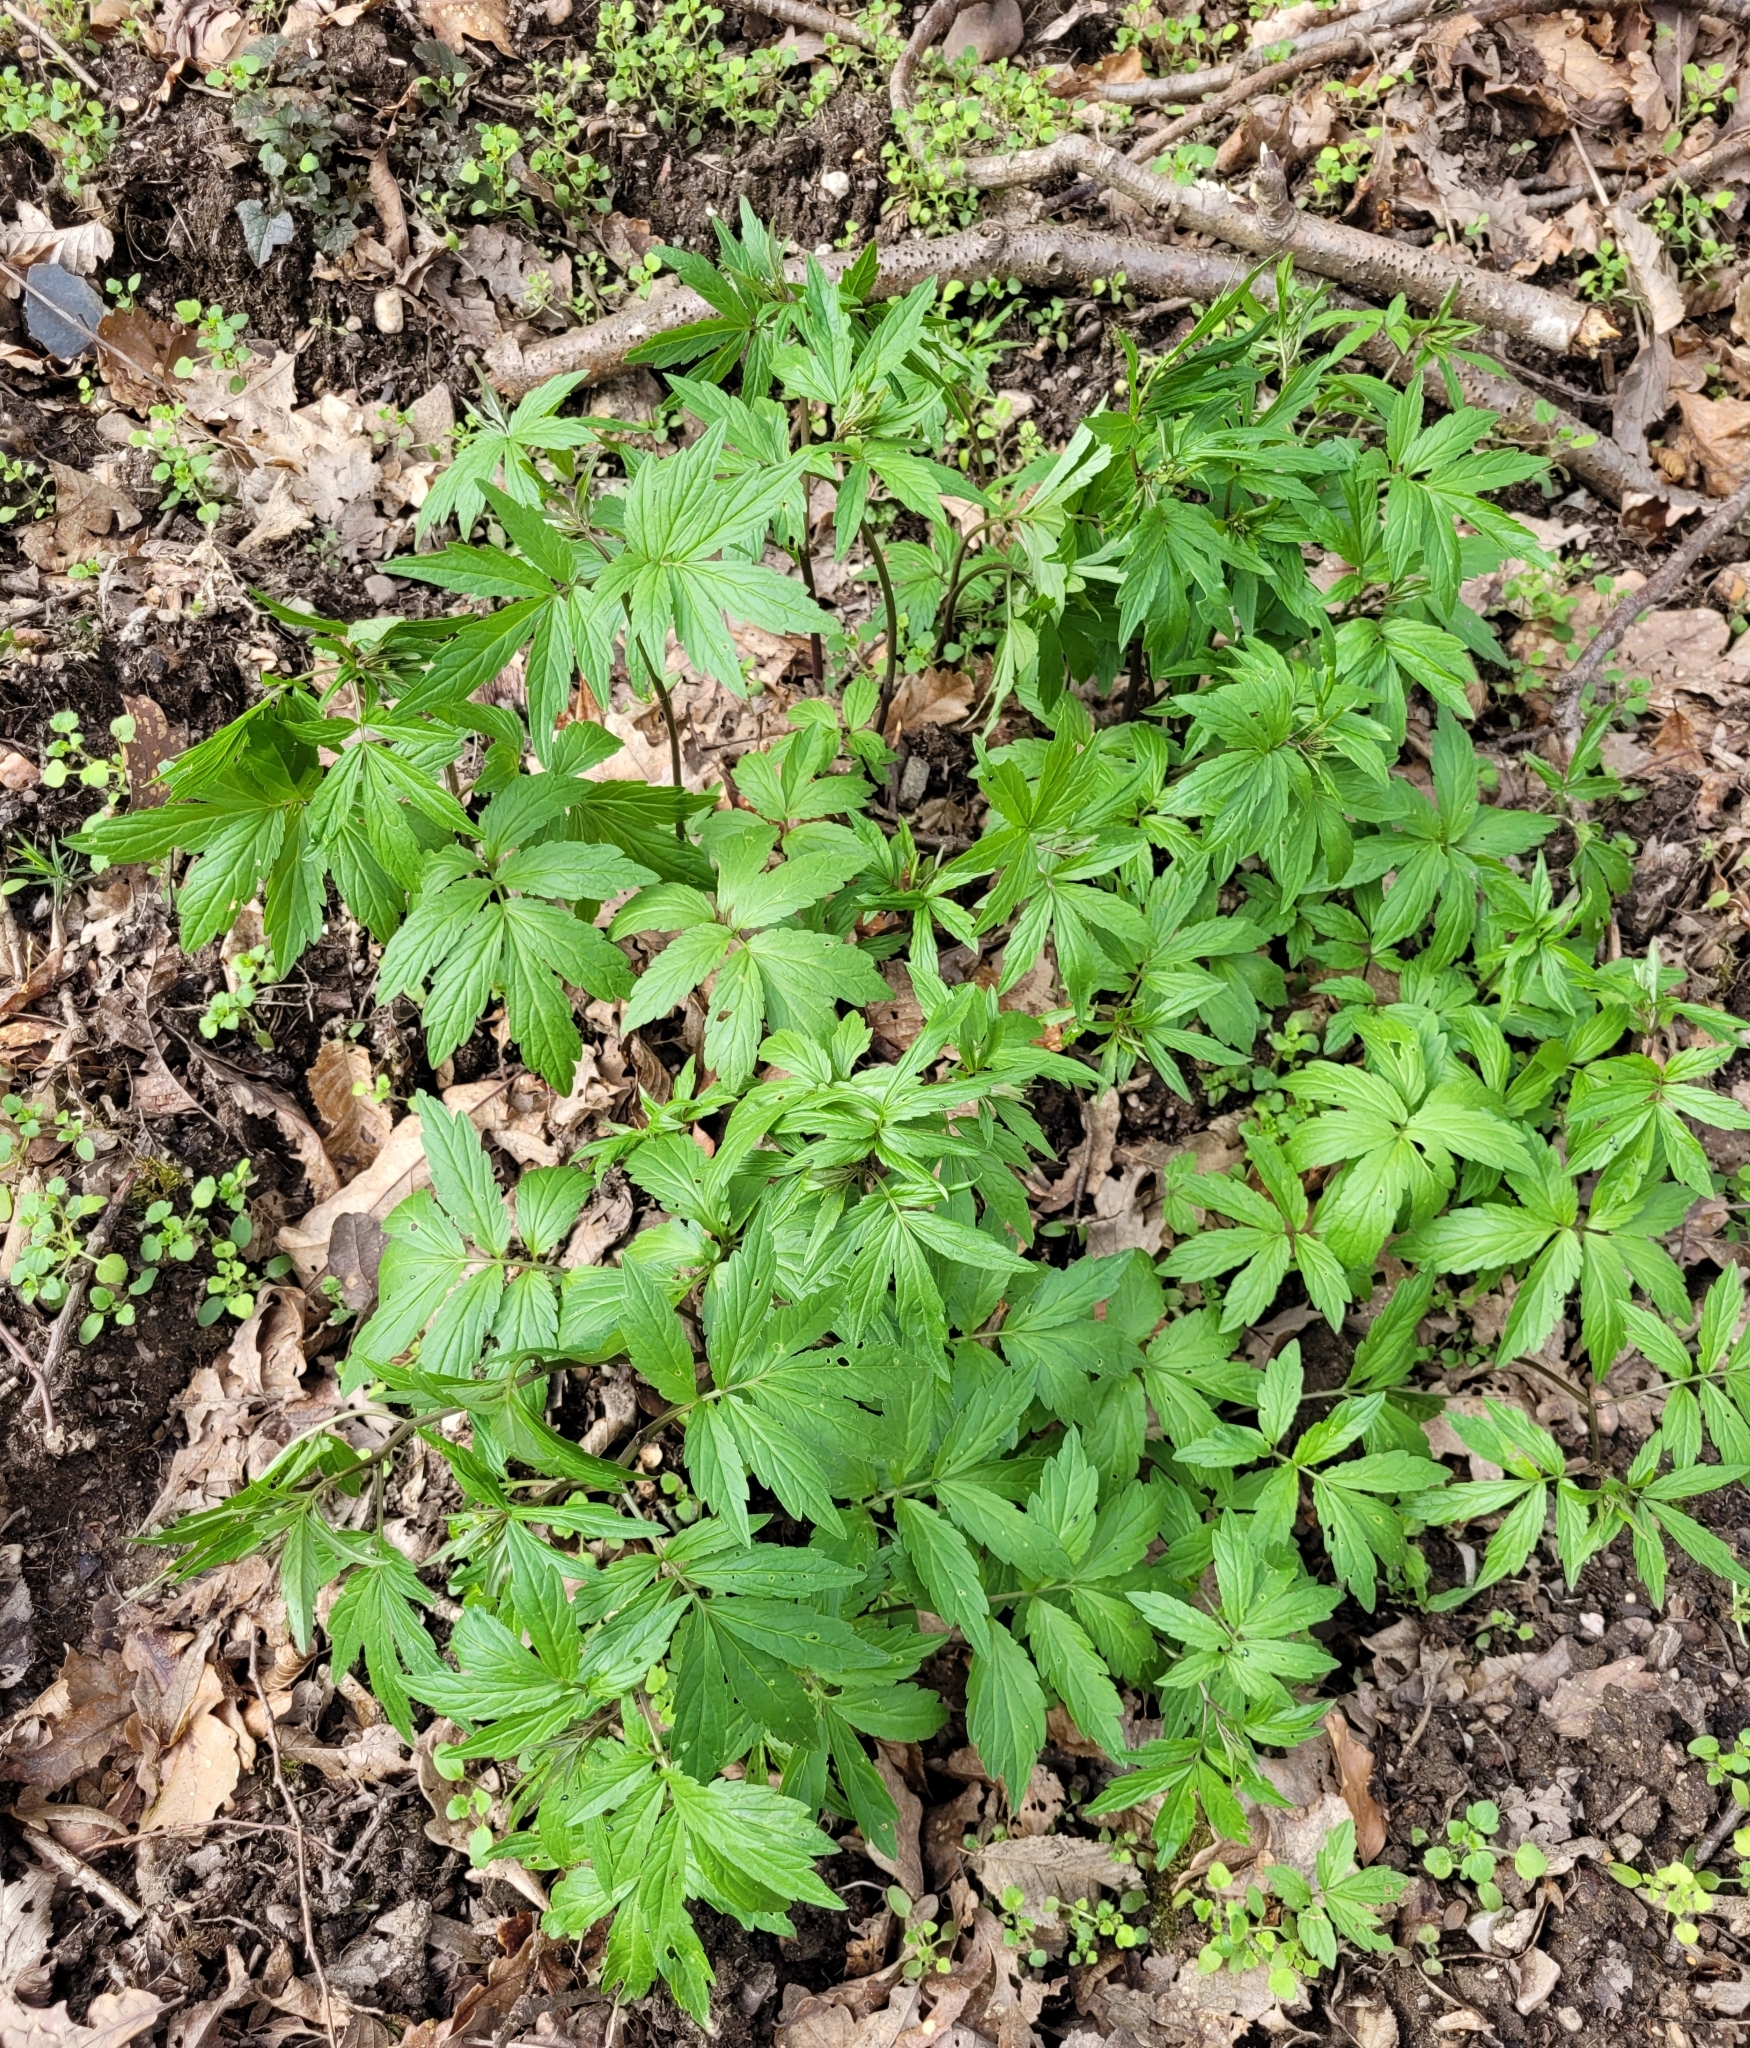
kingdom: Plantae
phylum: Tracheophyta
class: Magnoliopsida
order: Brassicales
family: Brassicaceae
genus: Cardamine
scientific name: Cardamine bulbifera
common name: Coralroot bittercress
